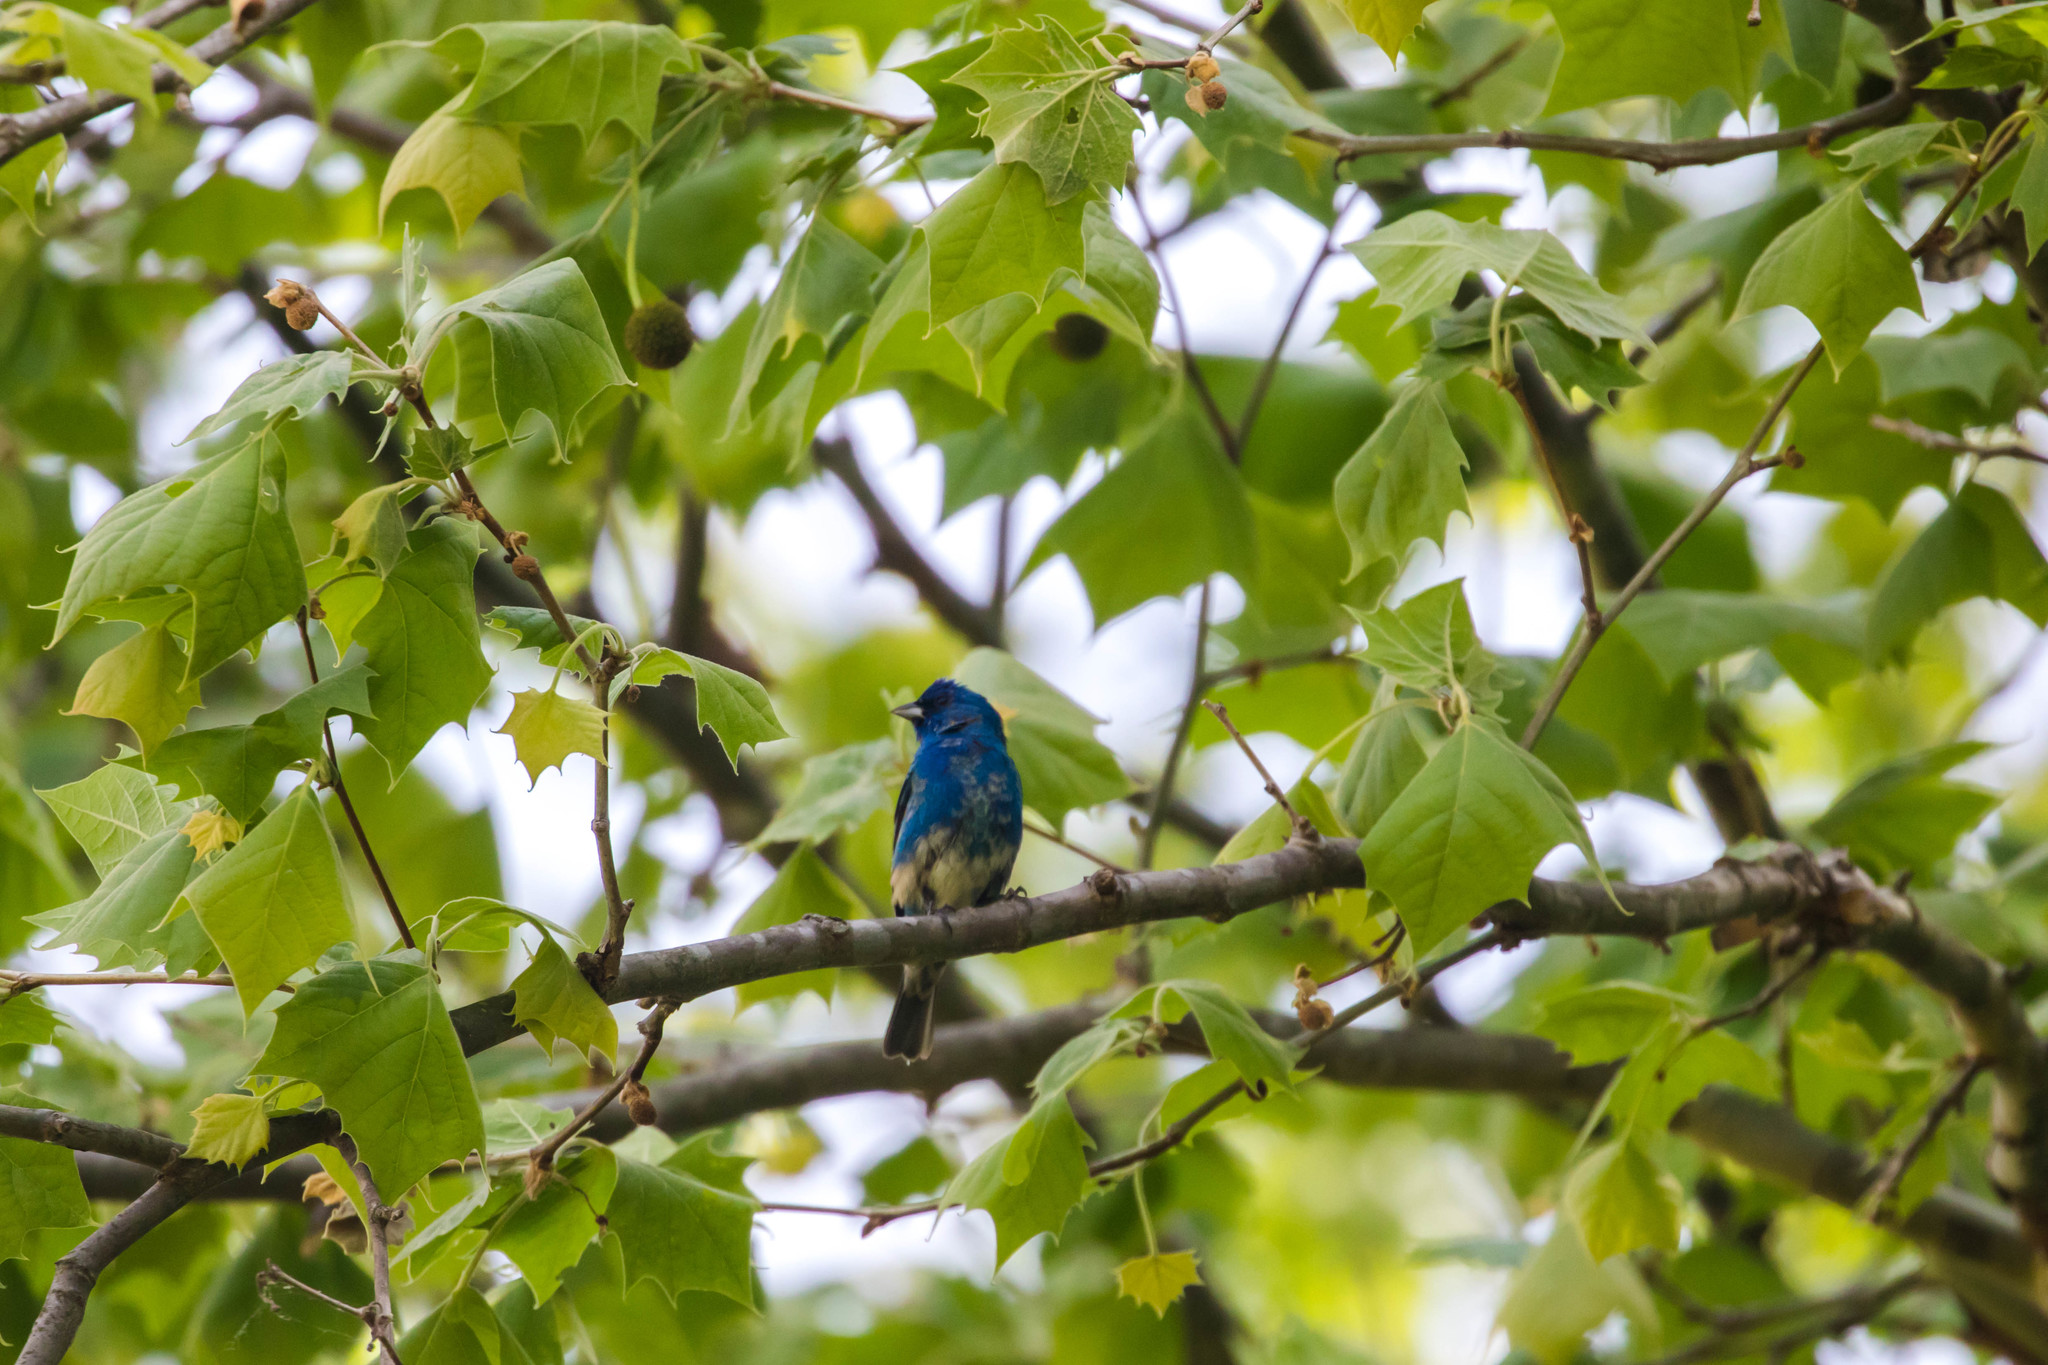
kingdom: Animalia
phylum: Chordata
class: Aves
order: Passeriformes
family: Cardinalidae
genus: Passerina
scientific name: Passerina cyanea
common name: Indigo bunting
